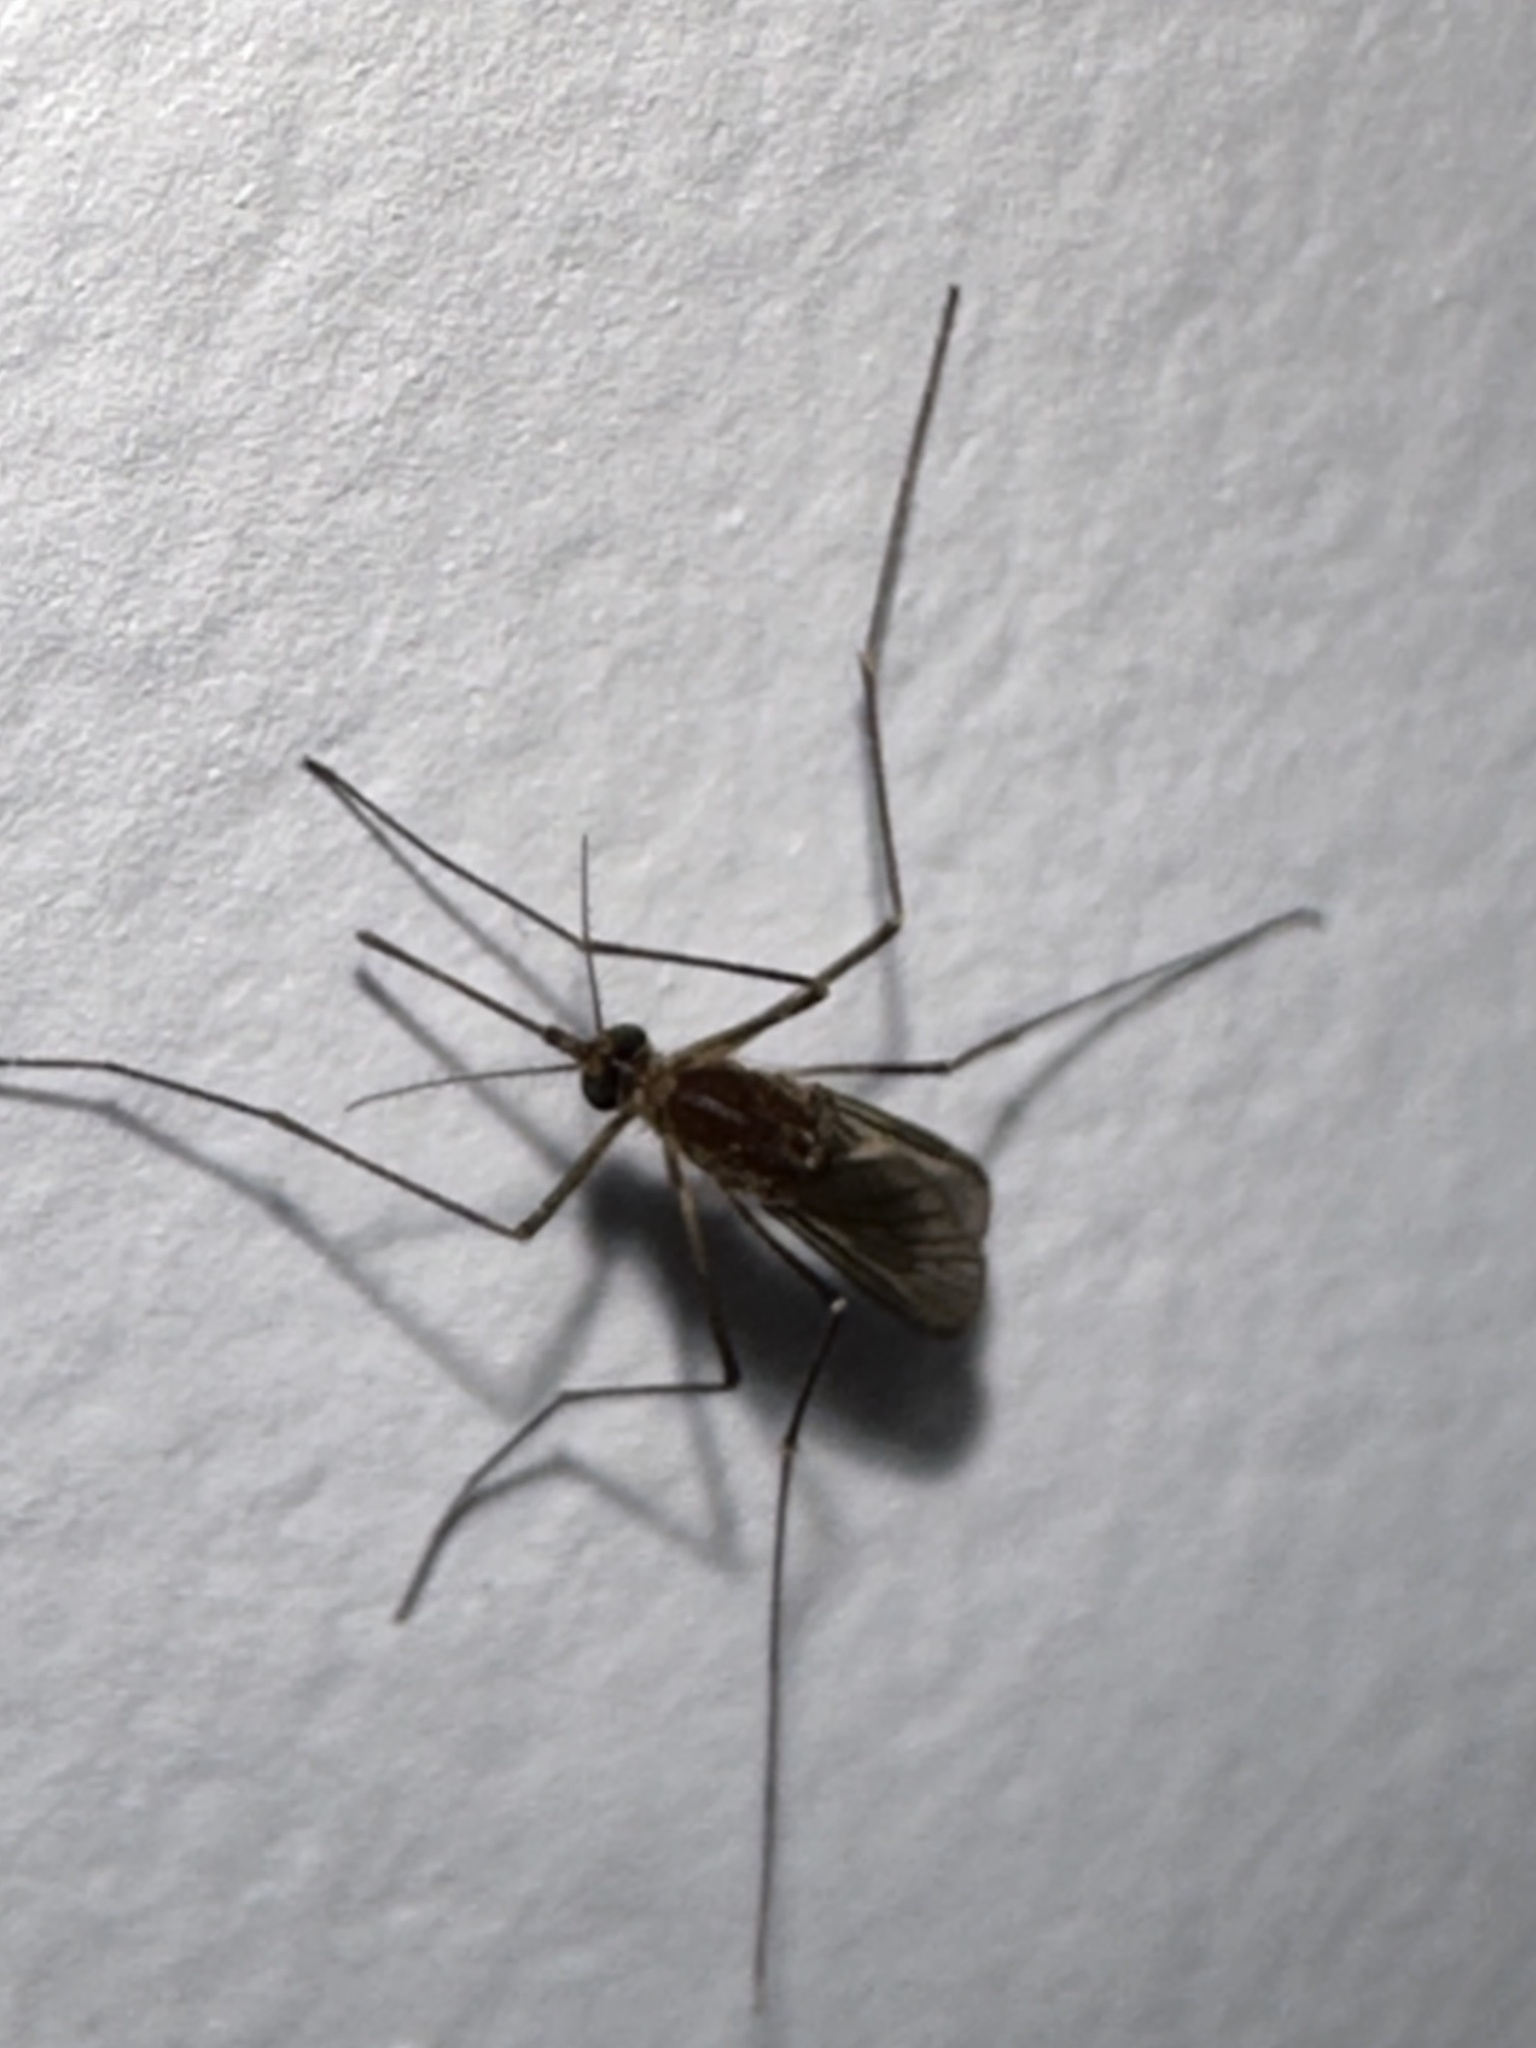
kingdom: Animalia
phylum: Arthropoda
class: Insecta
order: Diptera
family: Culicidae
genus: Culex
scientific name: Culex restuans
